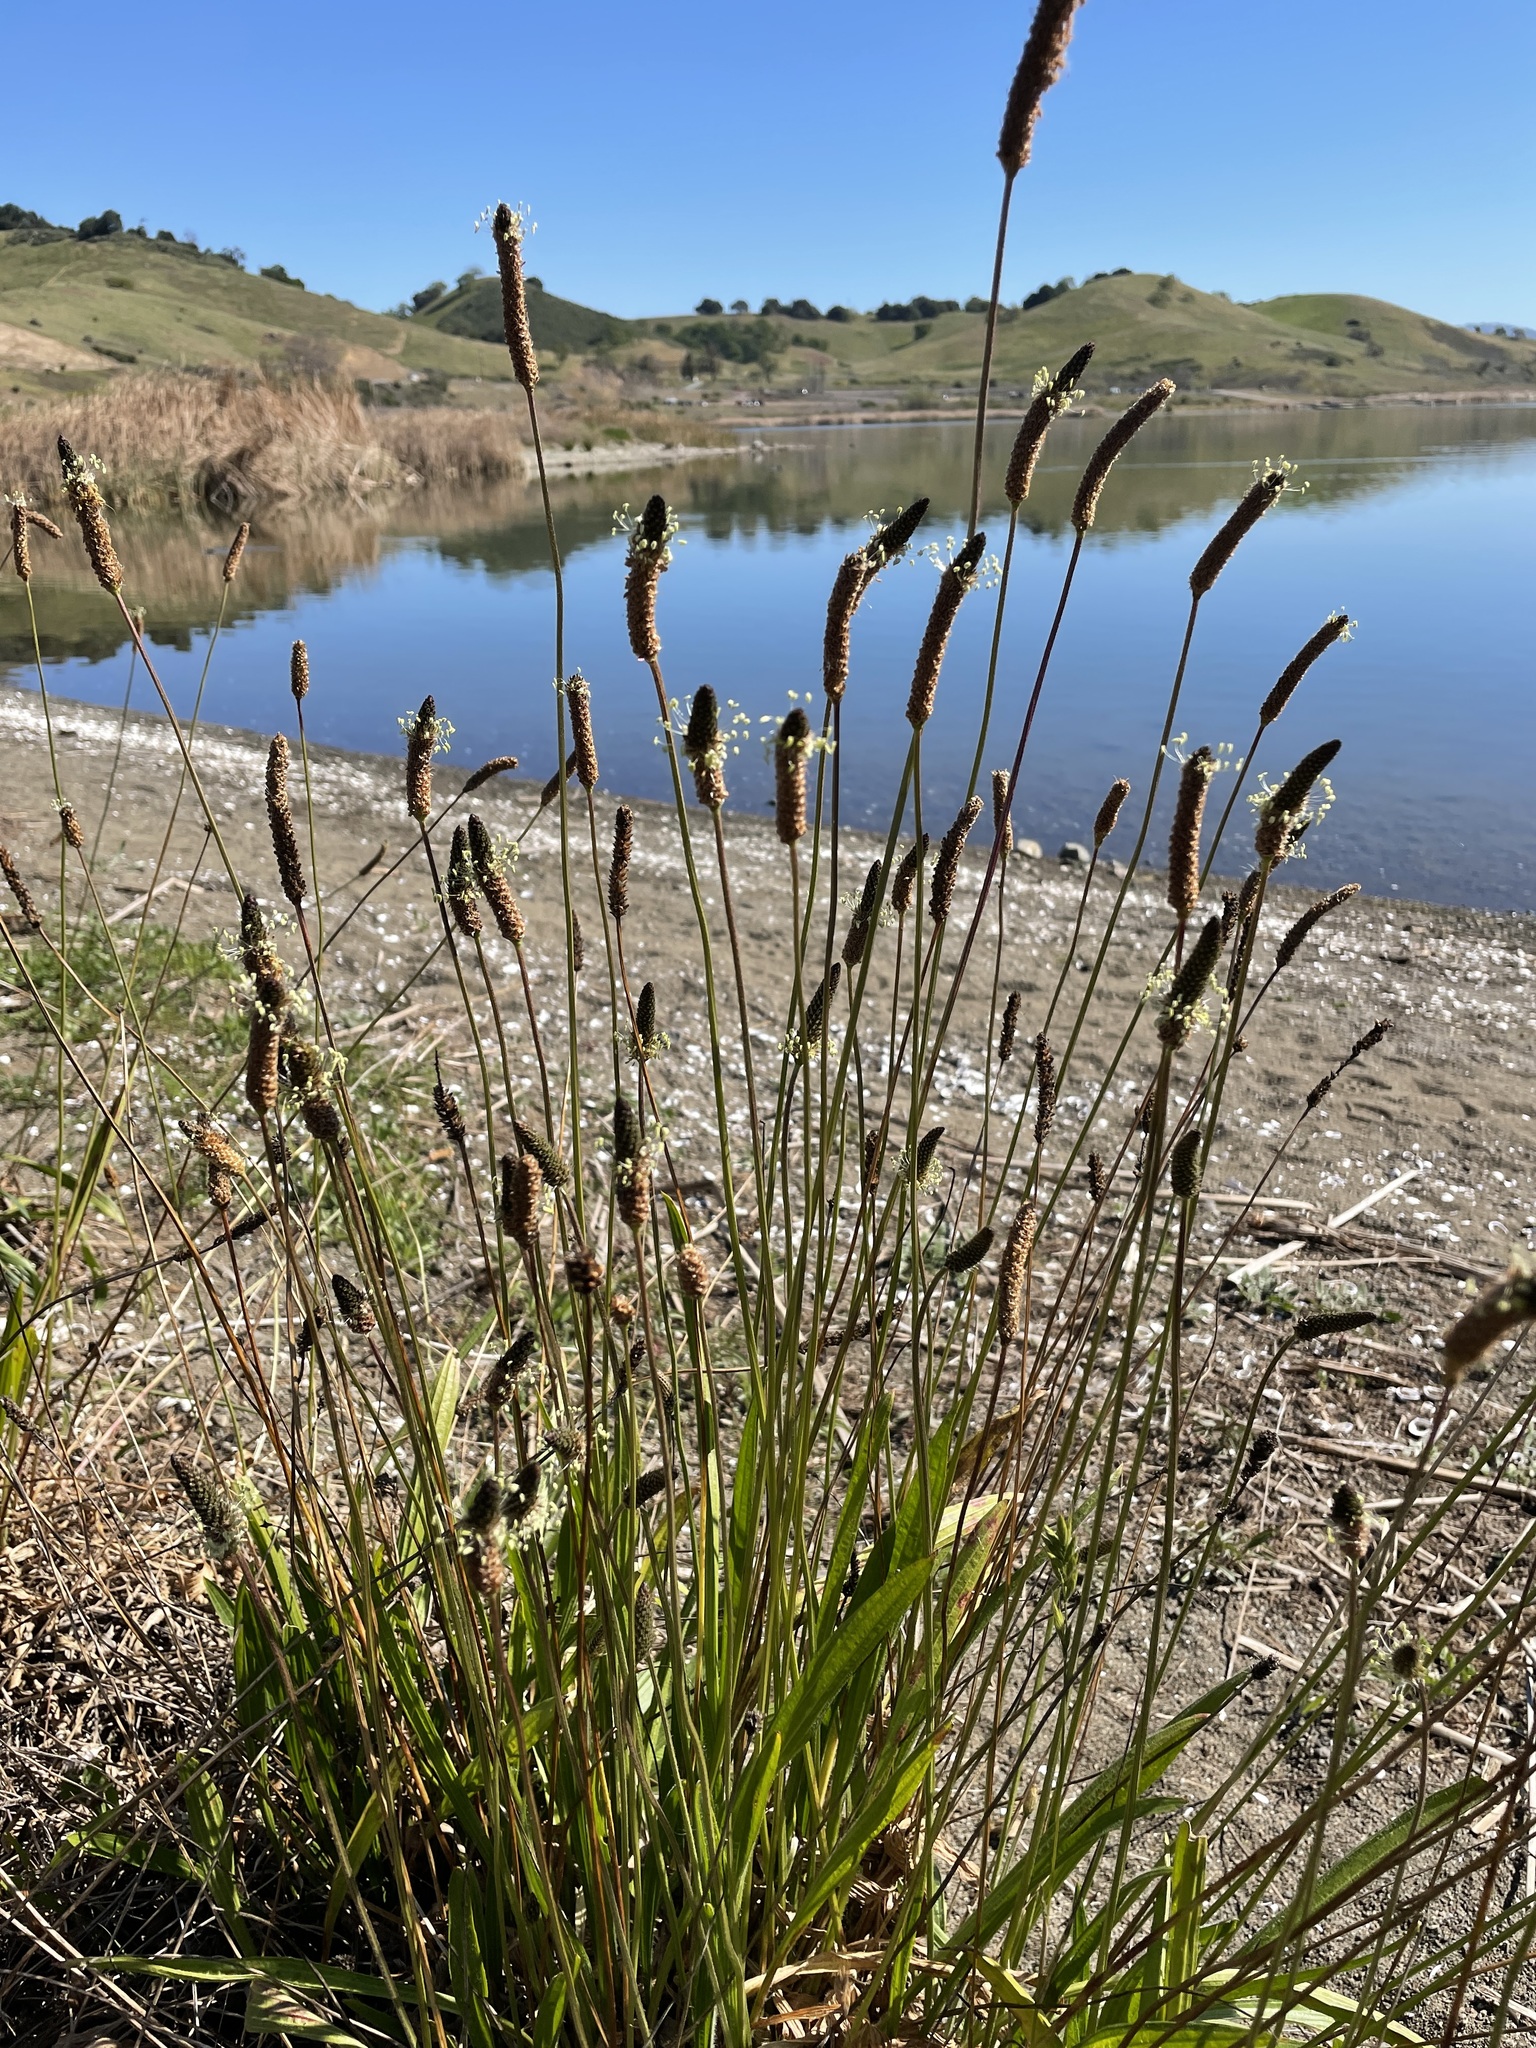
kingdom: Plantae
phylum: Tracheophyta
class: Magnoliopsida
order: Lamiales
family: Plantaginaceae
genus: Plantago
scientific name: Plantago lanceolata
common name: Ribwort plantain
